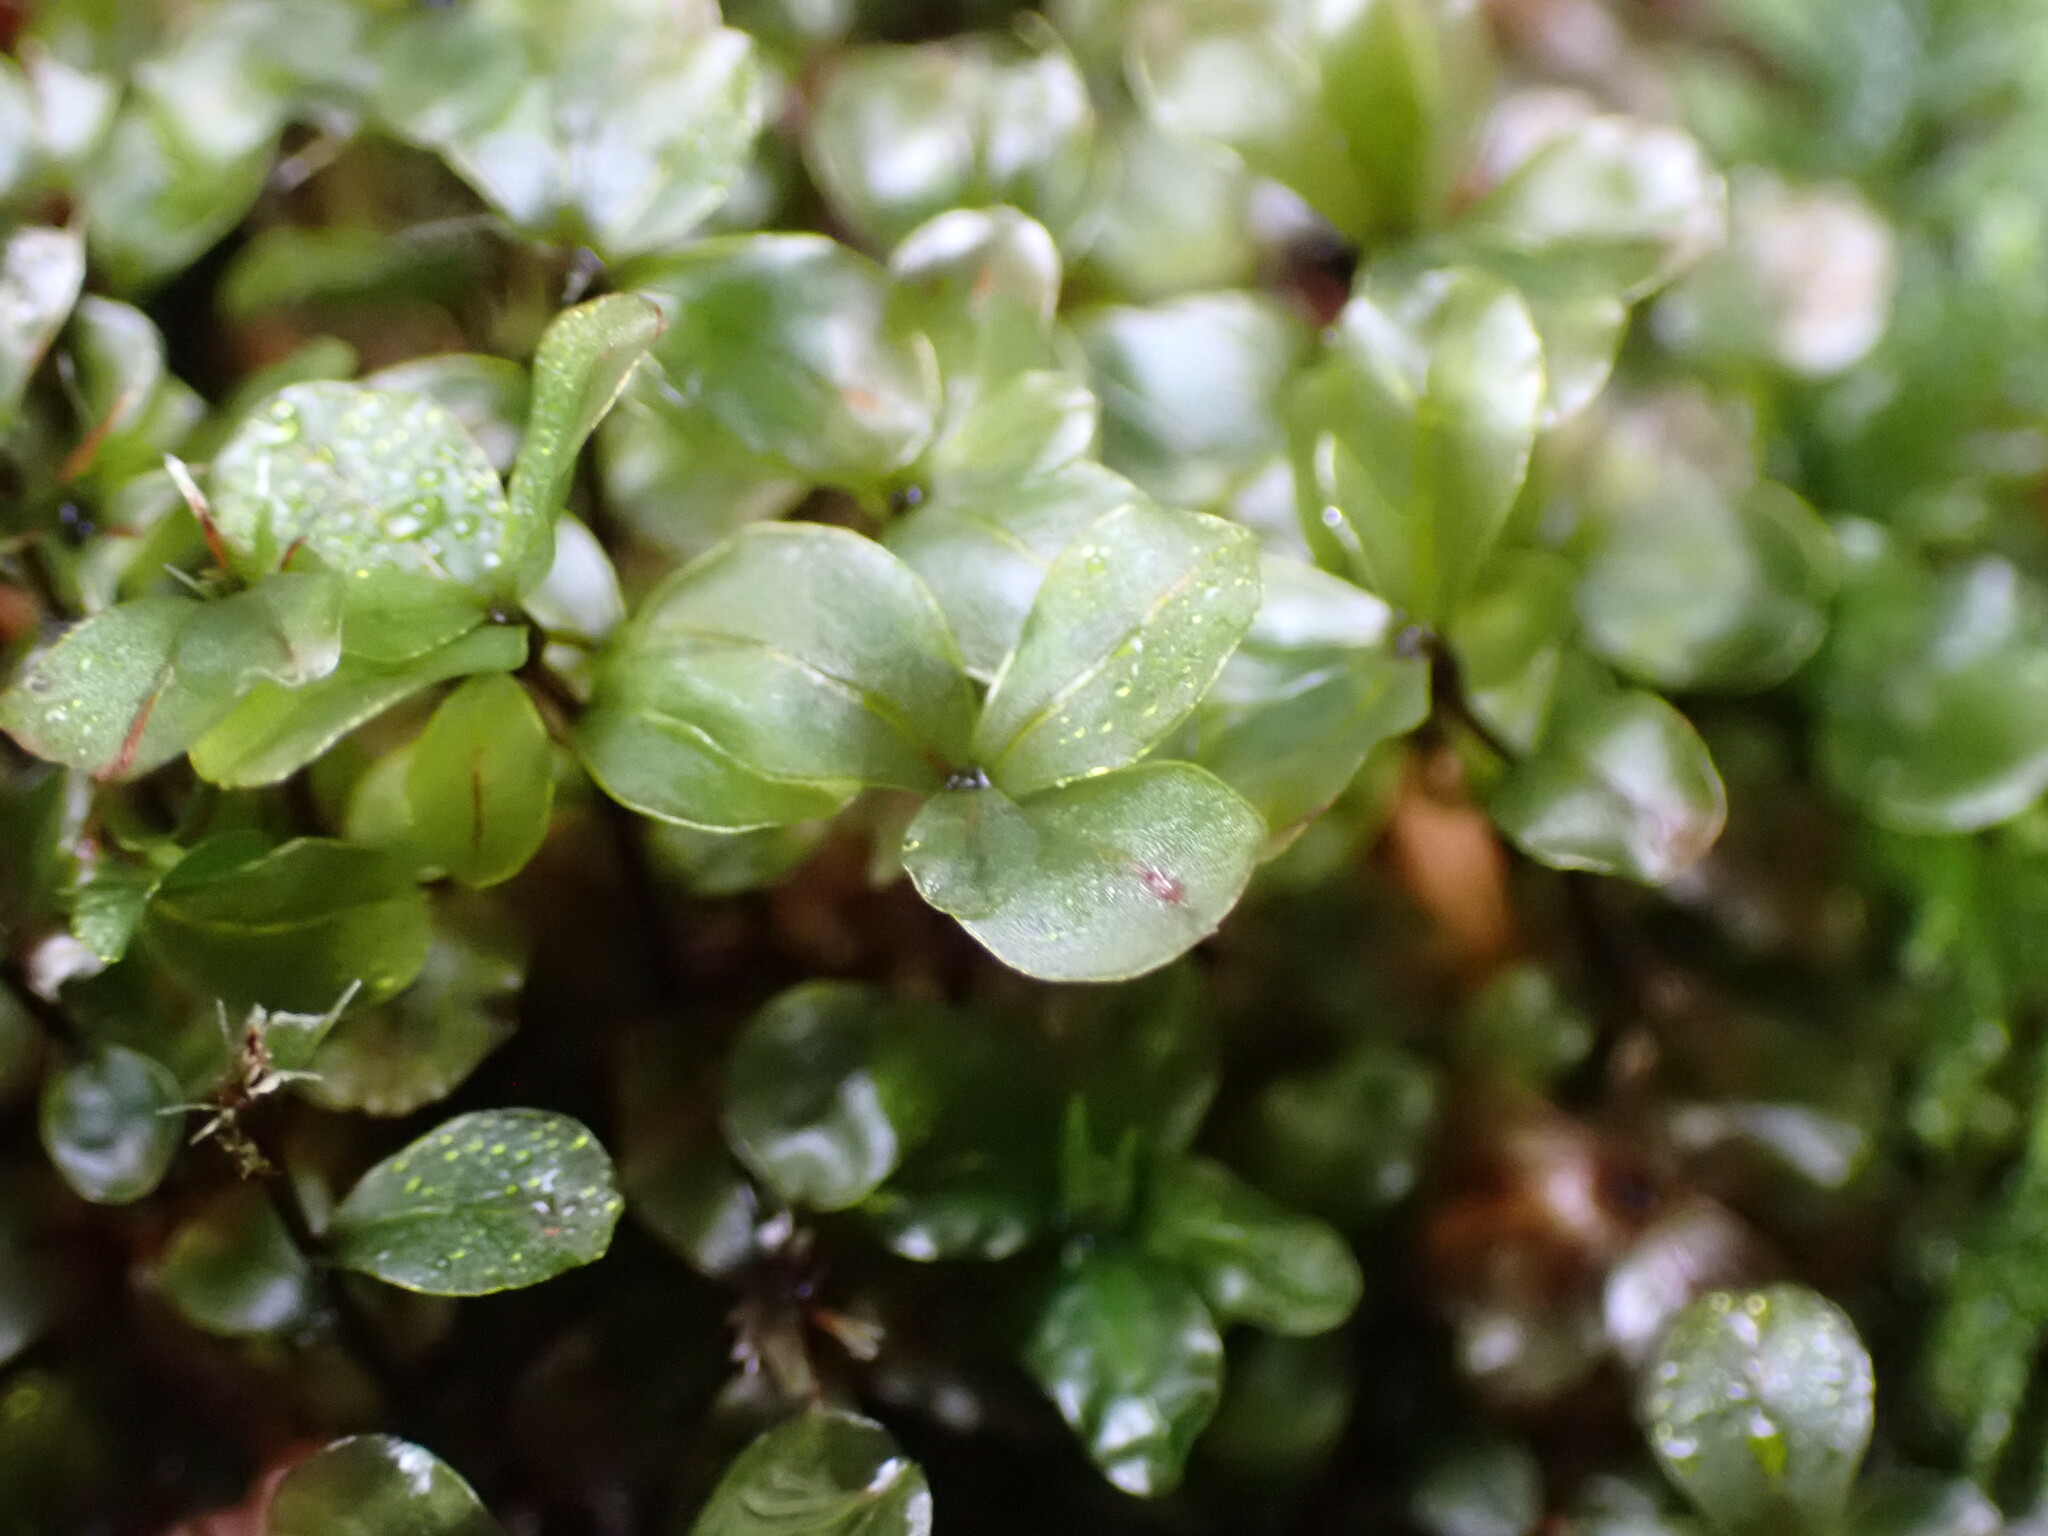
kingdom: Plantae
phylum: Bryophyta
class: Bryopsida
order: Bryales
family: Mniaceae
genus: Rhizomnium
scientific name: Rhizomnium glabrescens
